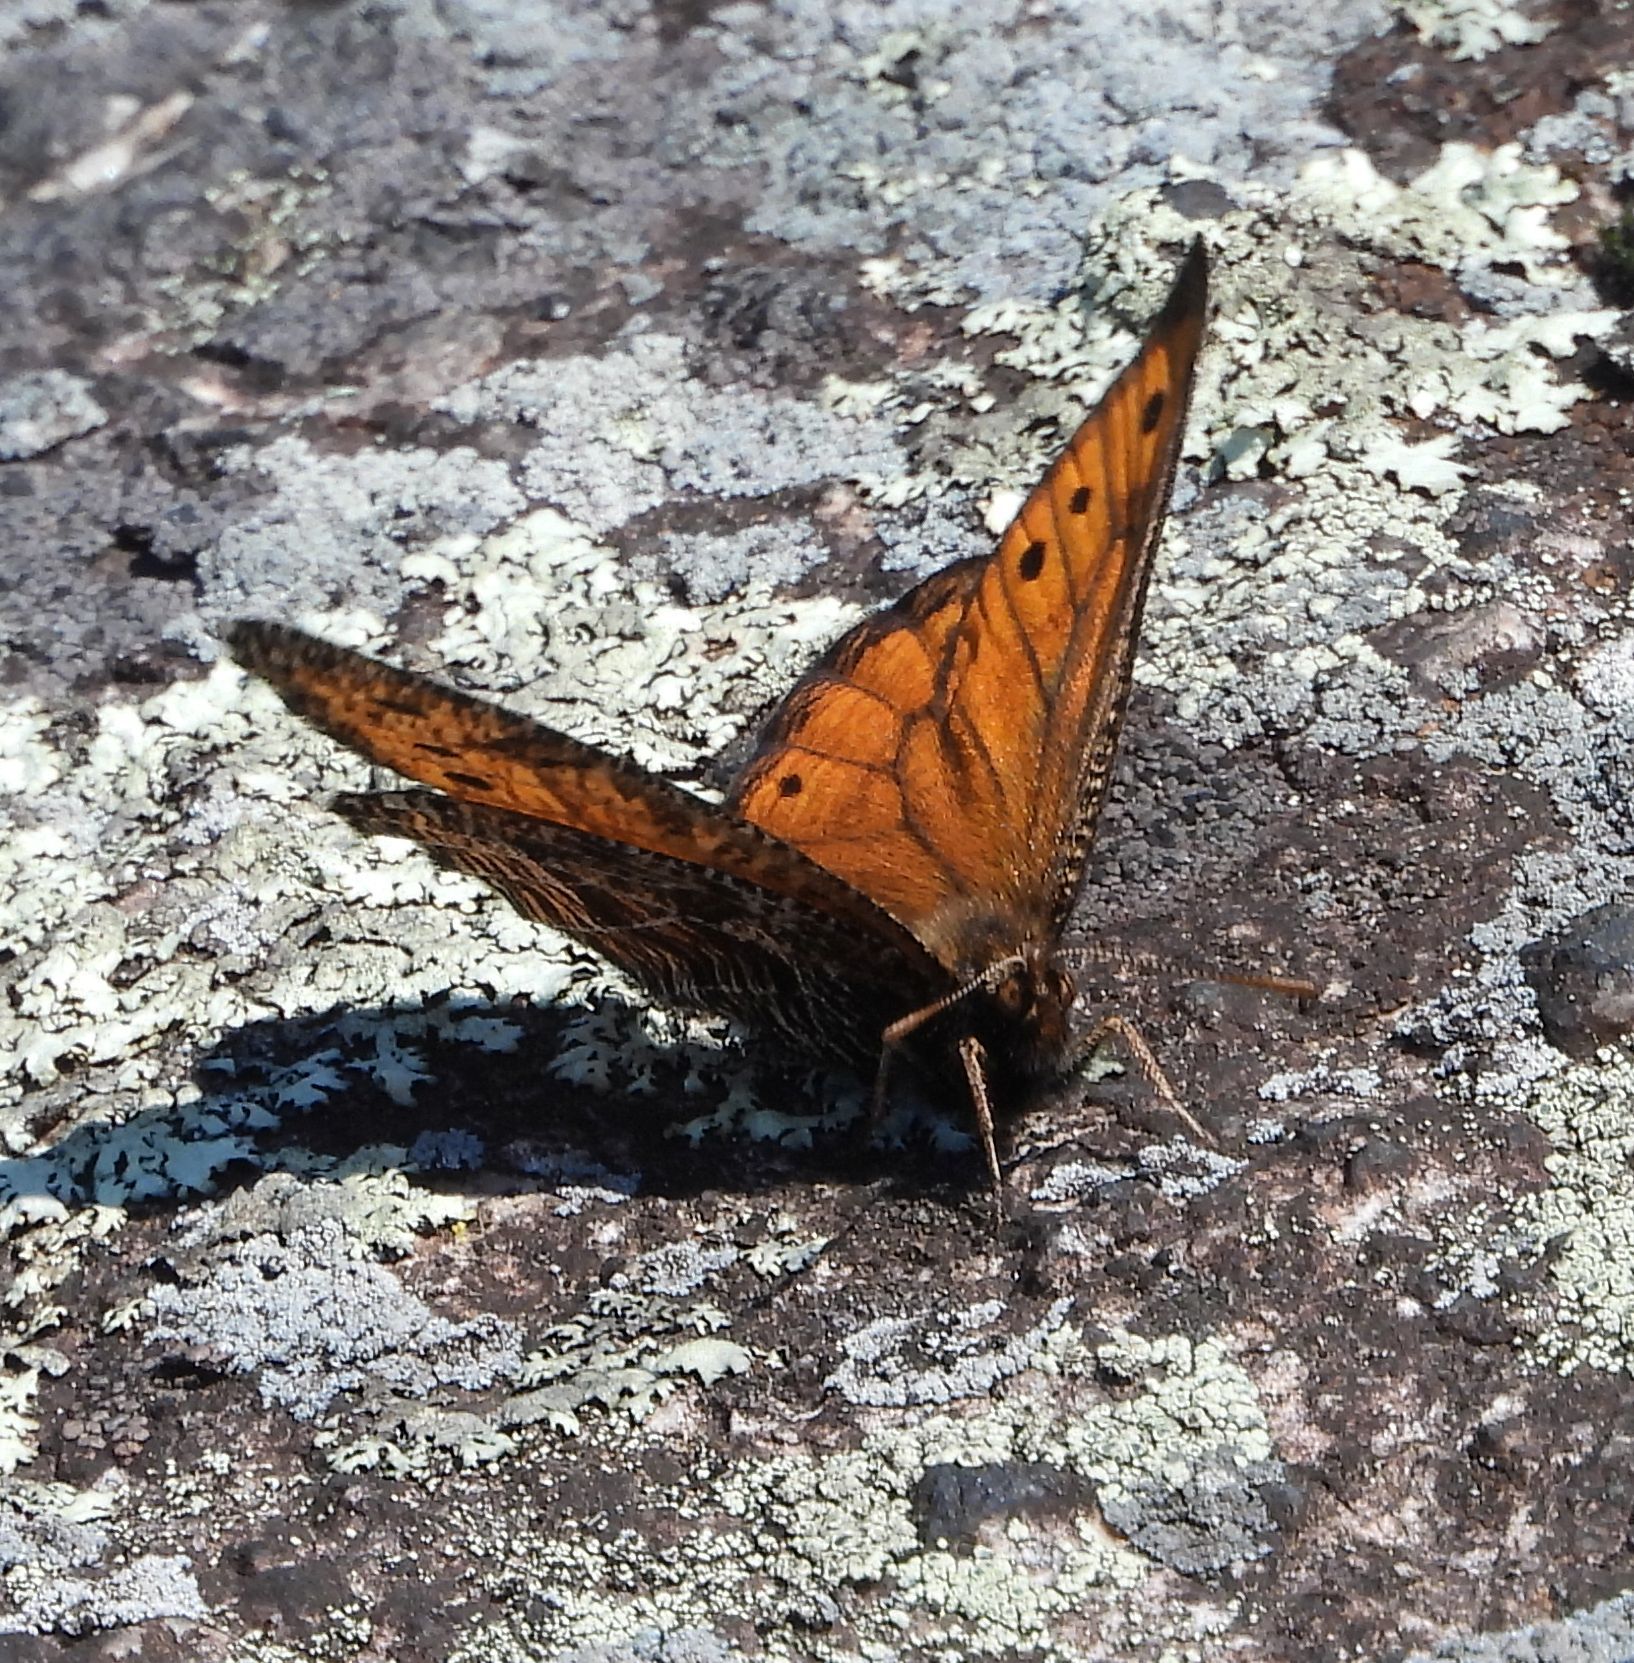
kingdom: Animalia
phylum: Arthropoda
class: Insecta
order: Lepidoptera
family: Nymphalidae
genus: Oeneis
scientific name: Oeneis chryxus
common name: Chryxus arctic
